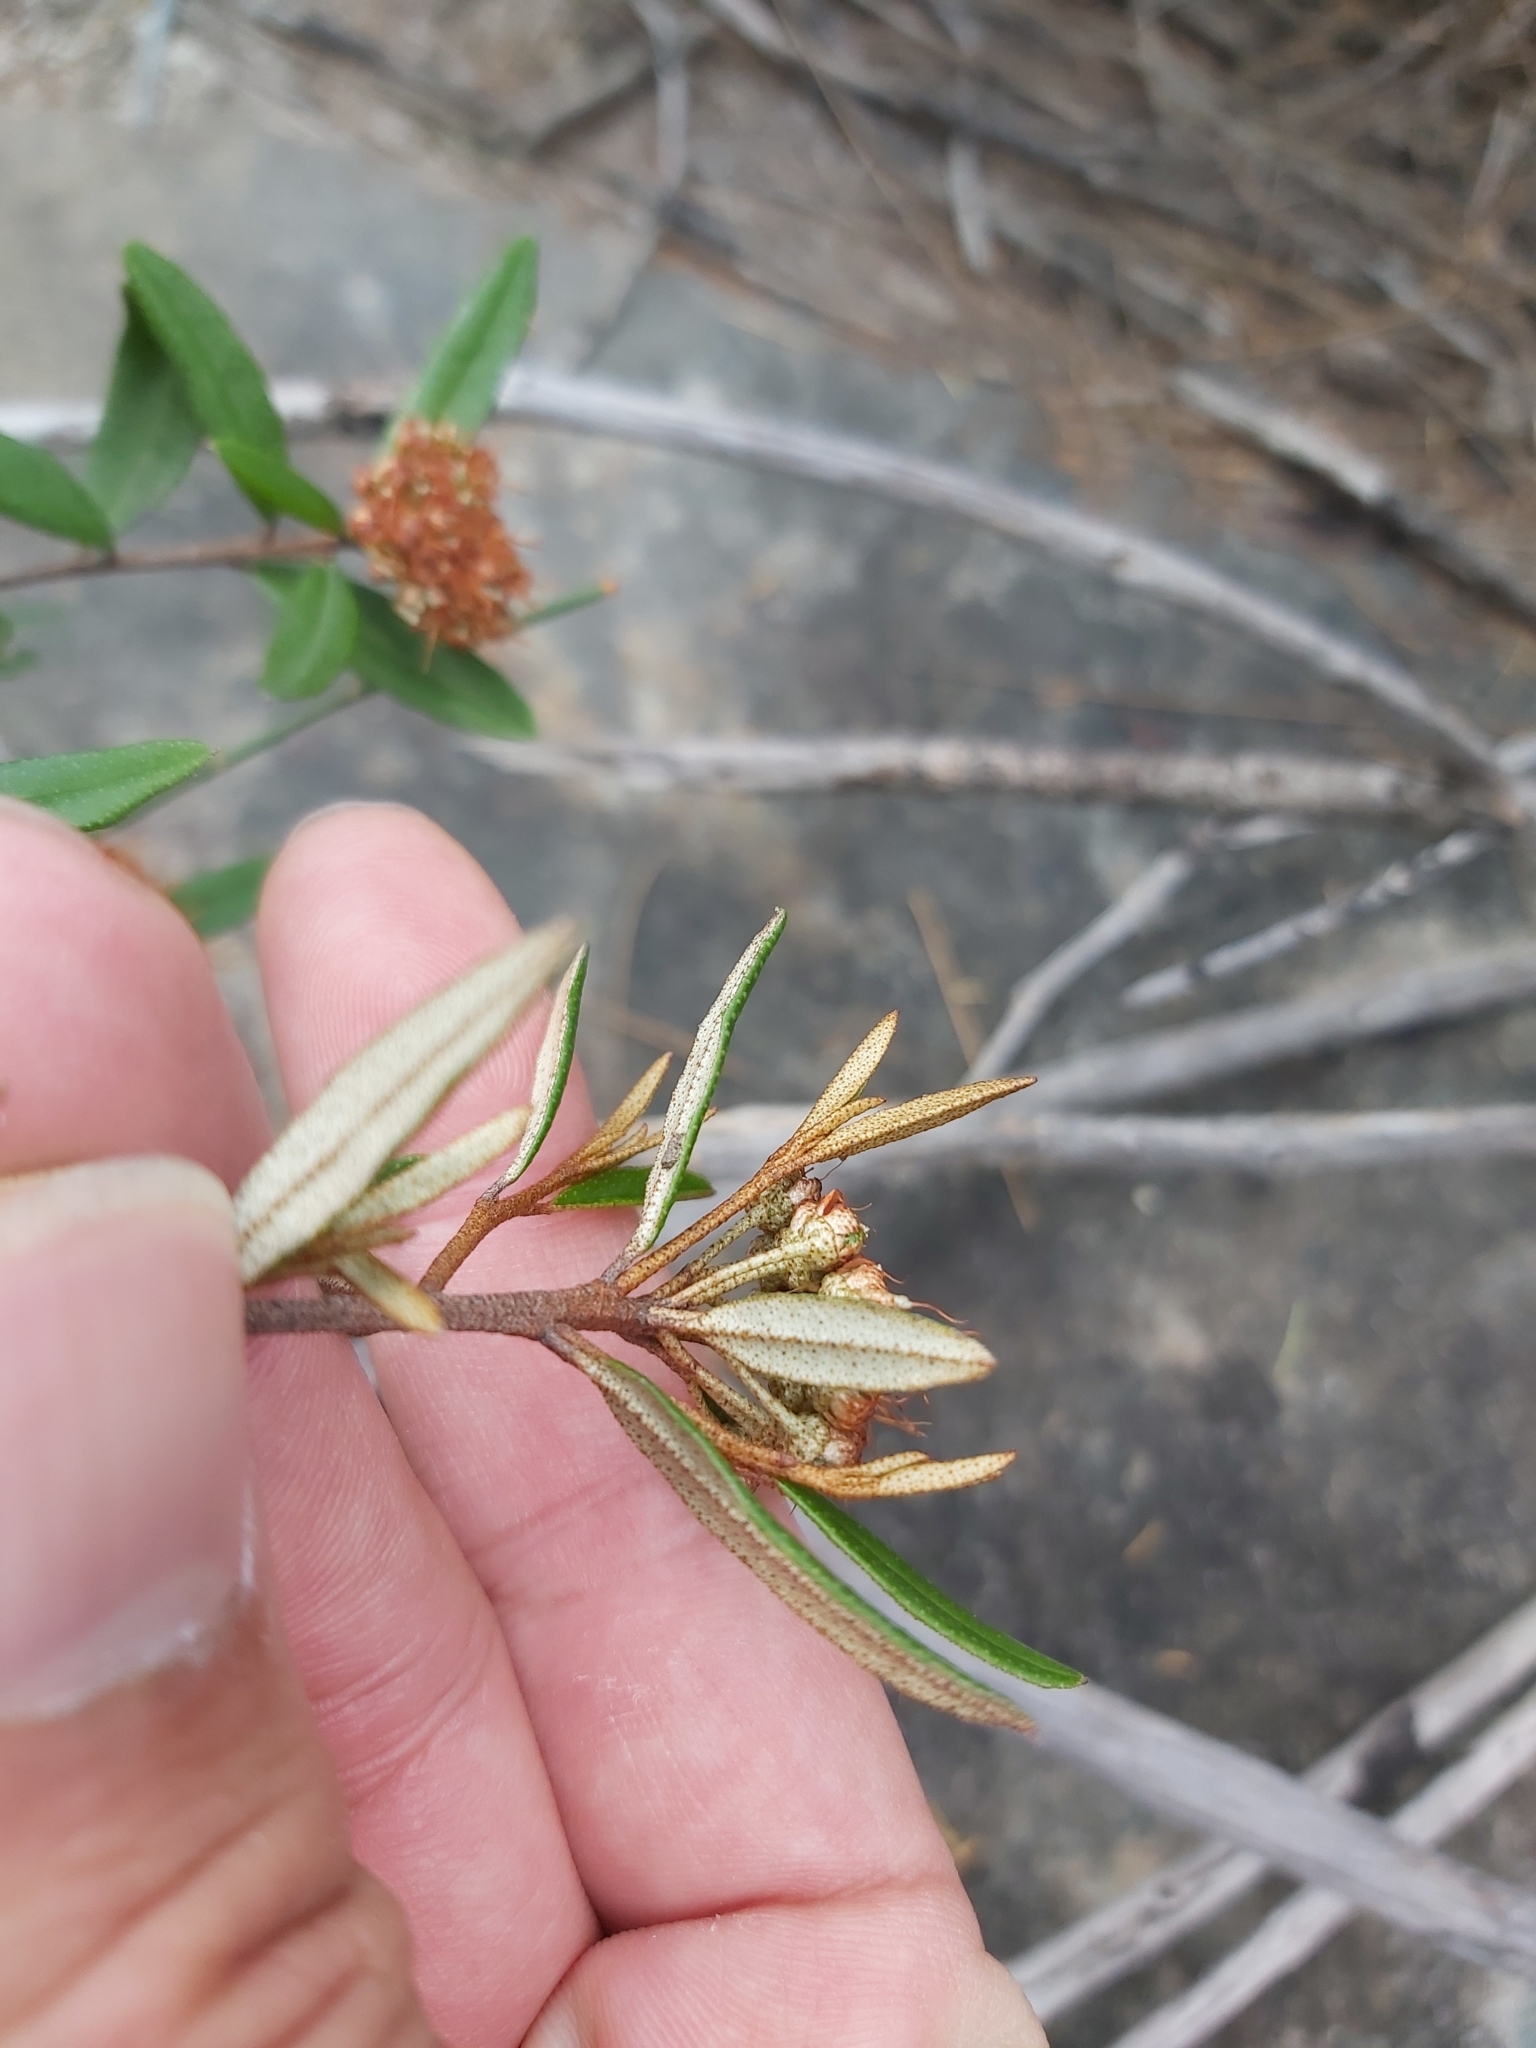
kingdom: Plantae
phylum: Tracheophyta
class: Magnoliopsida
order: Sapindales
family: Rutaceae
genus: Phebalium
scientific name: Phebalium squamulosum
